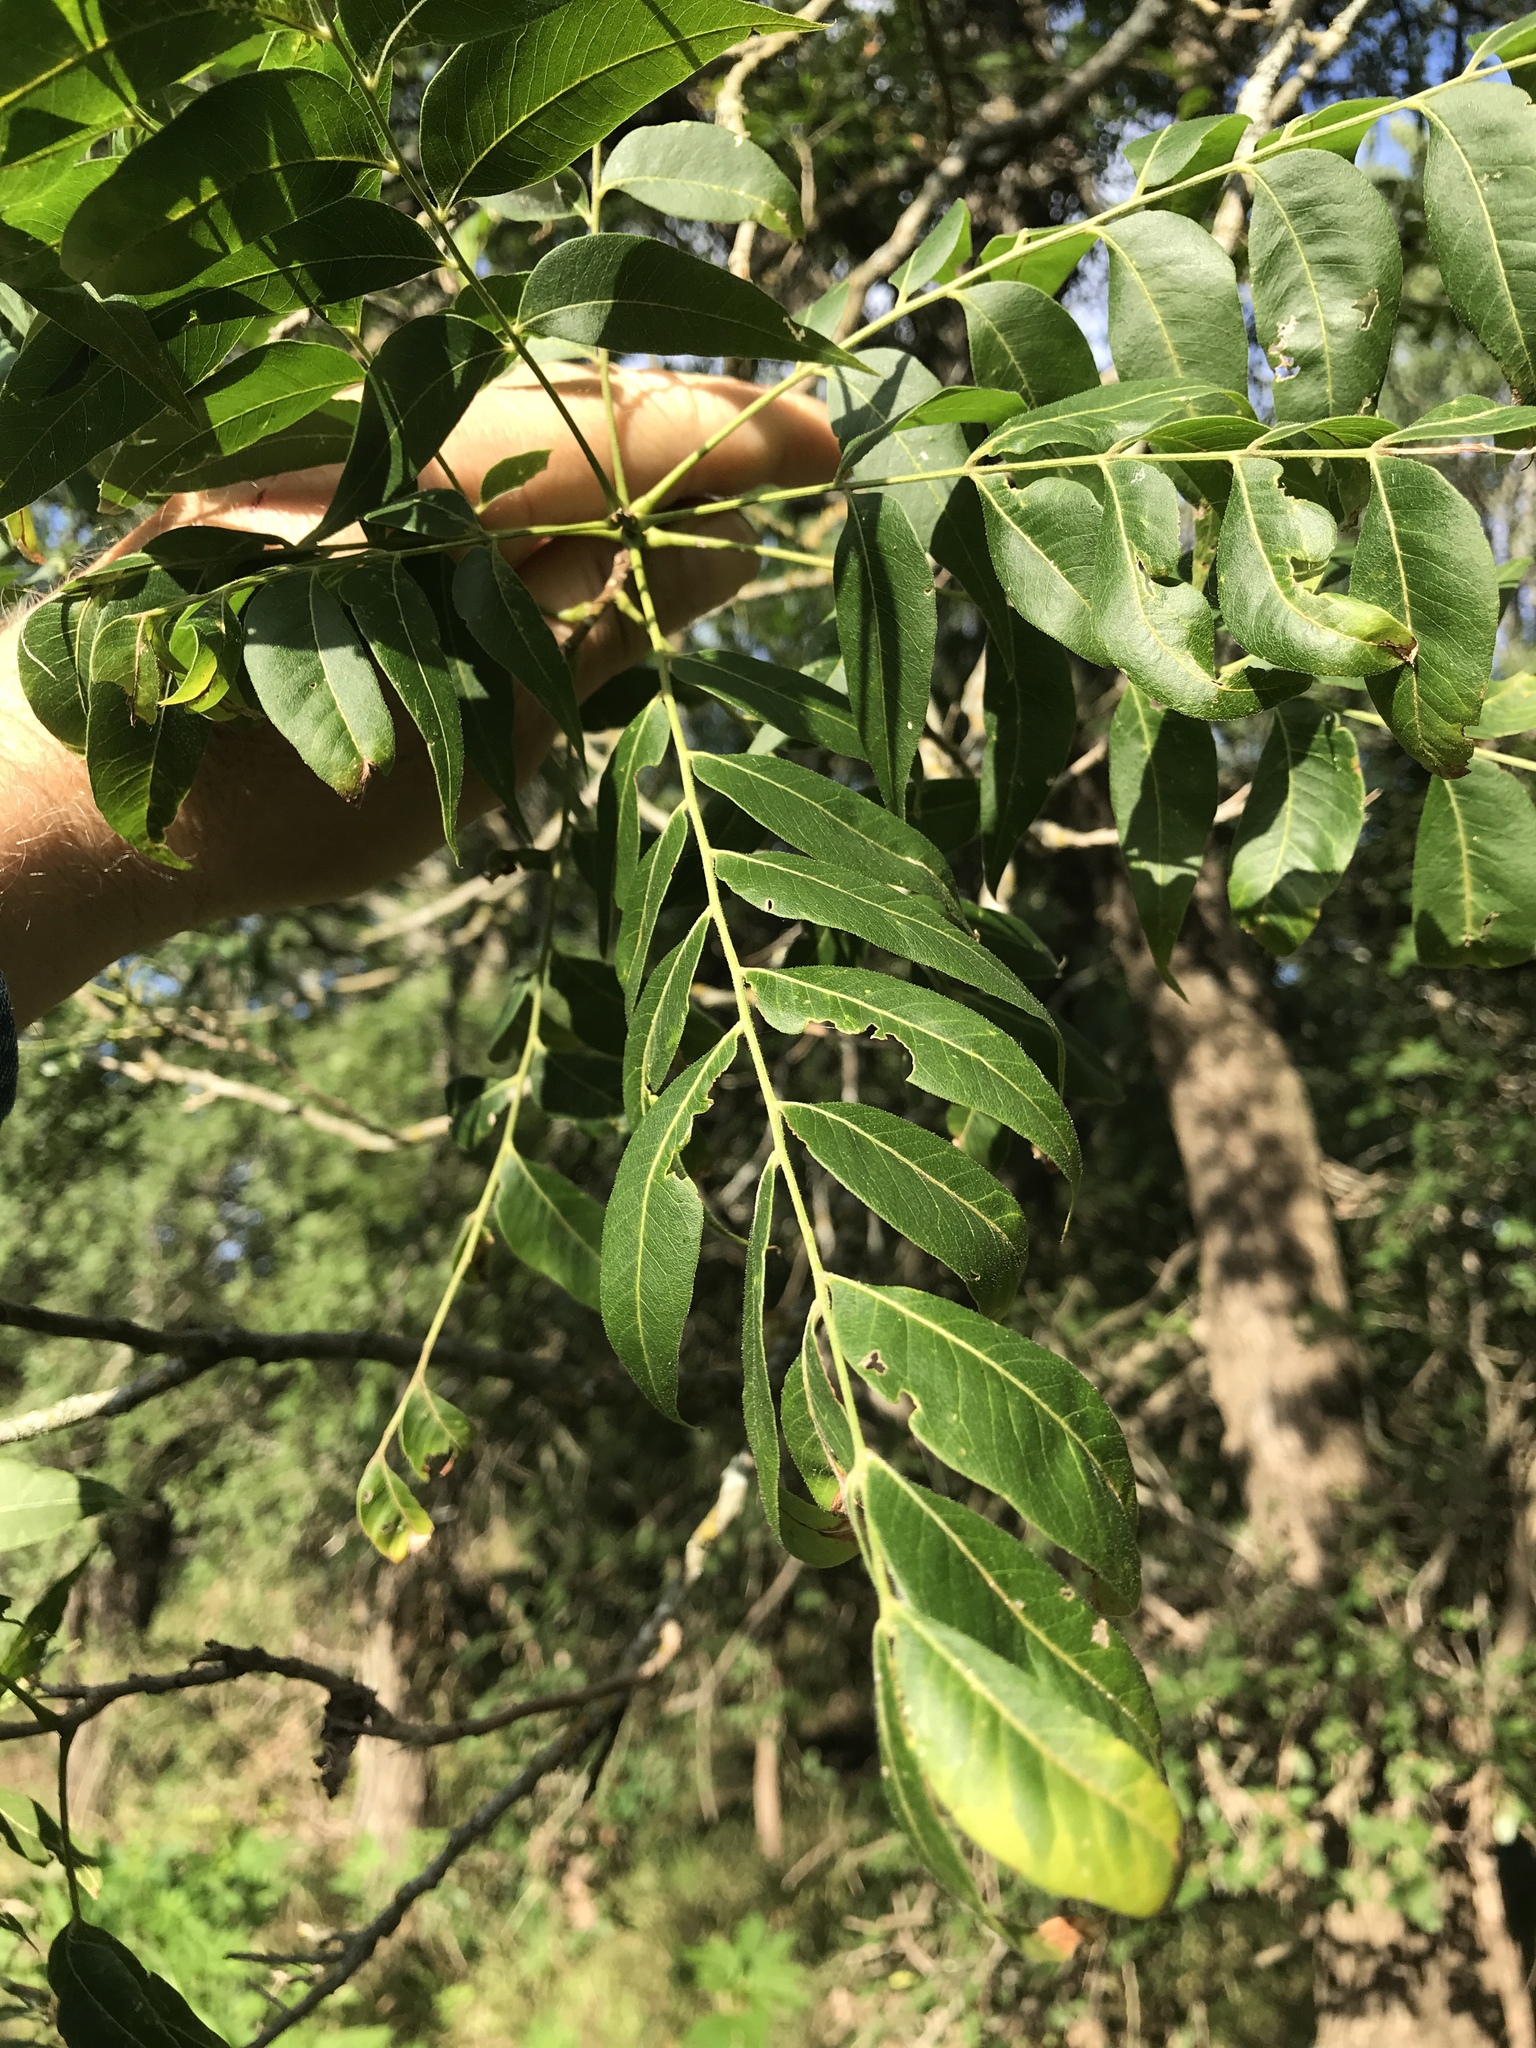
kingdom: Plantae
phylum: Tracheophyta
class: Magnoliopsida
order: Sapindales
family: Sapindaceae
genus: Sapindus
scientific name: Sapindus drummondii
